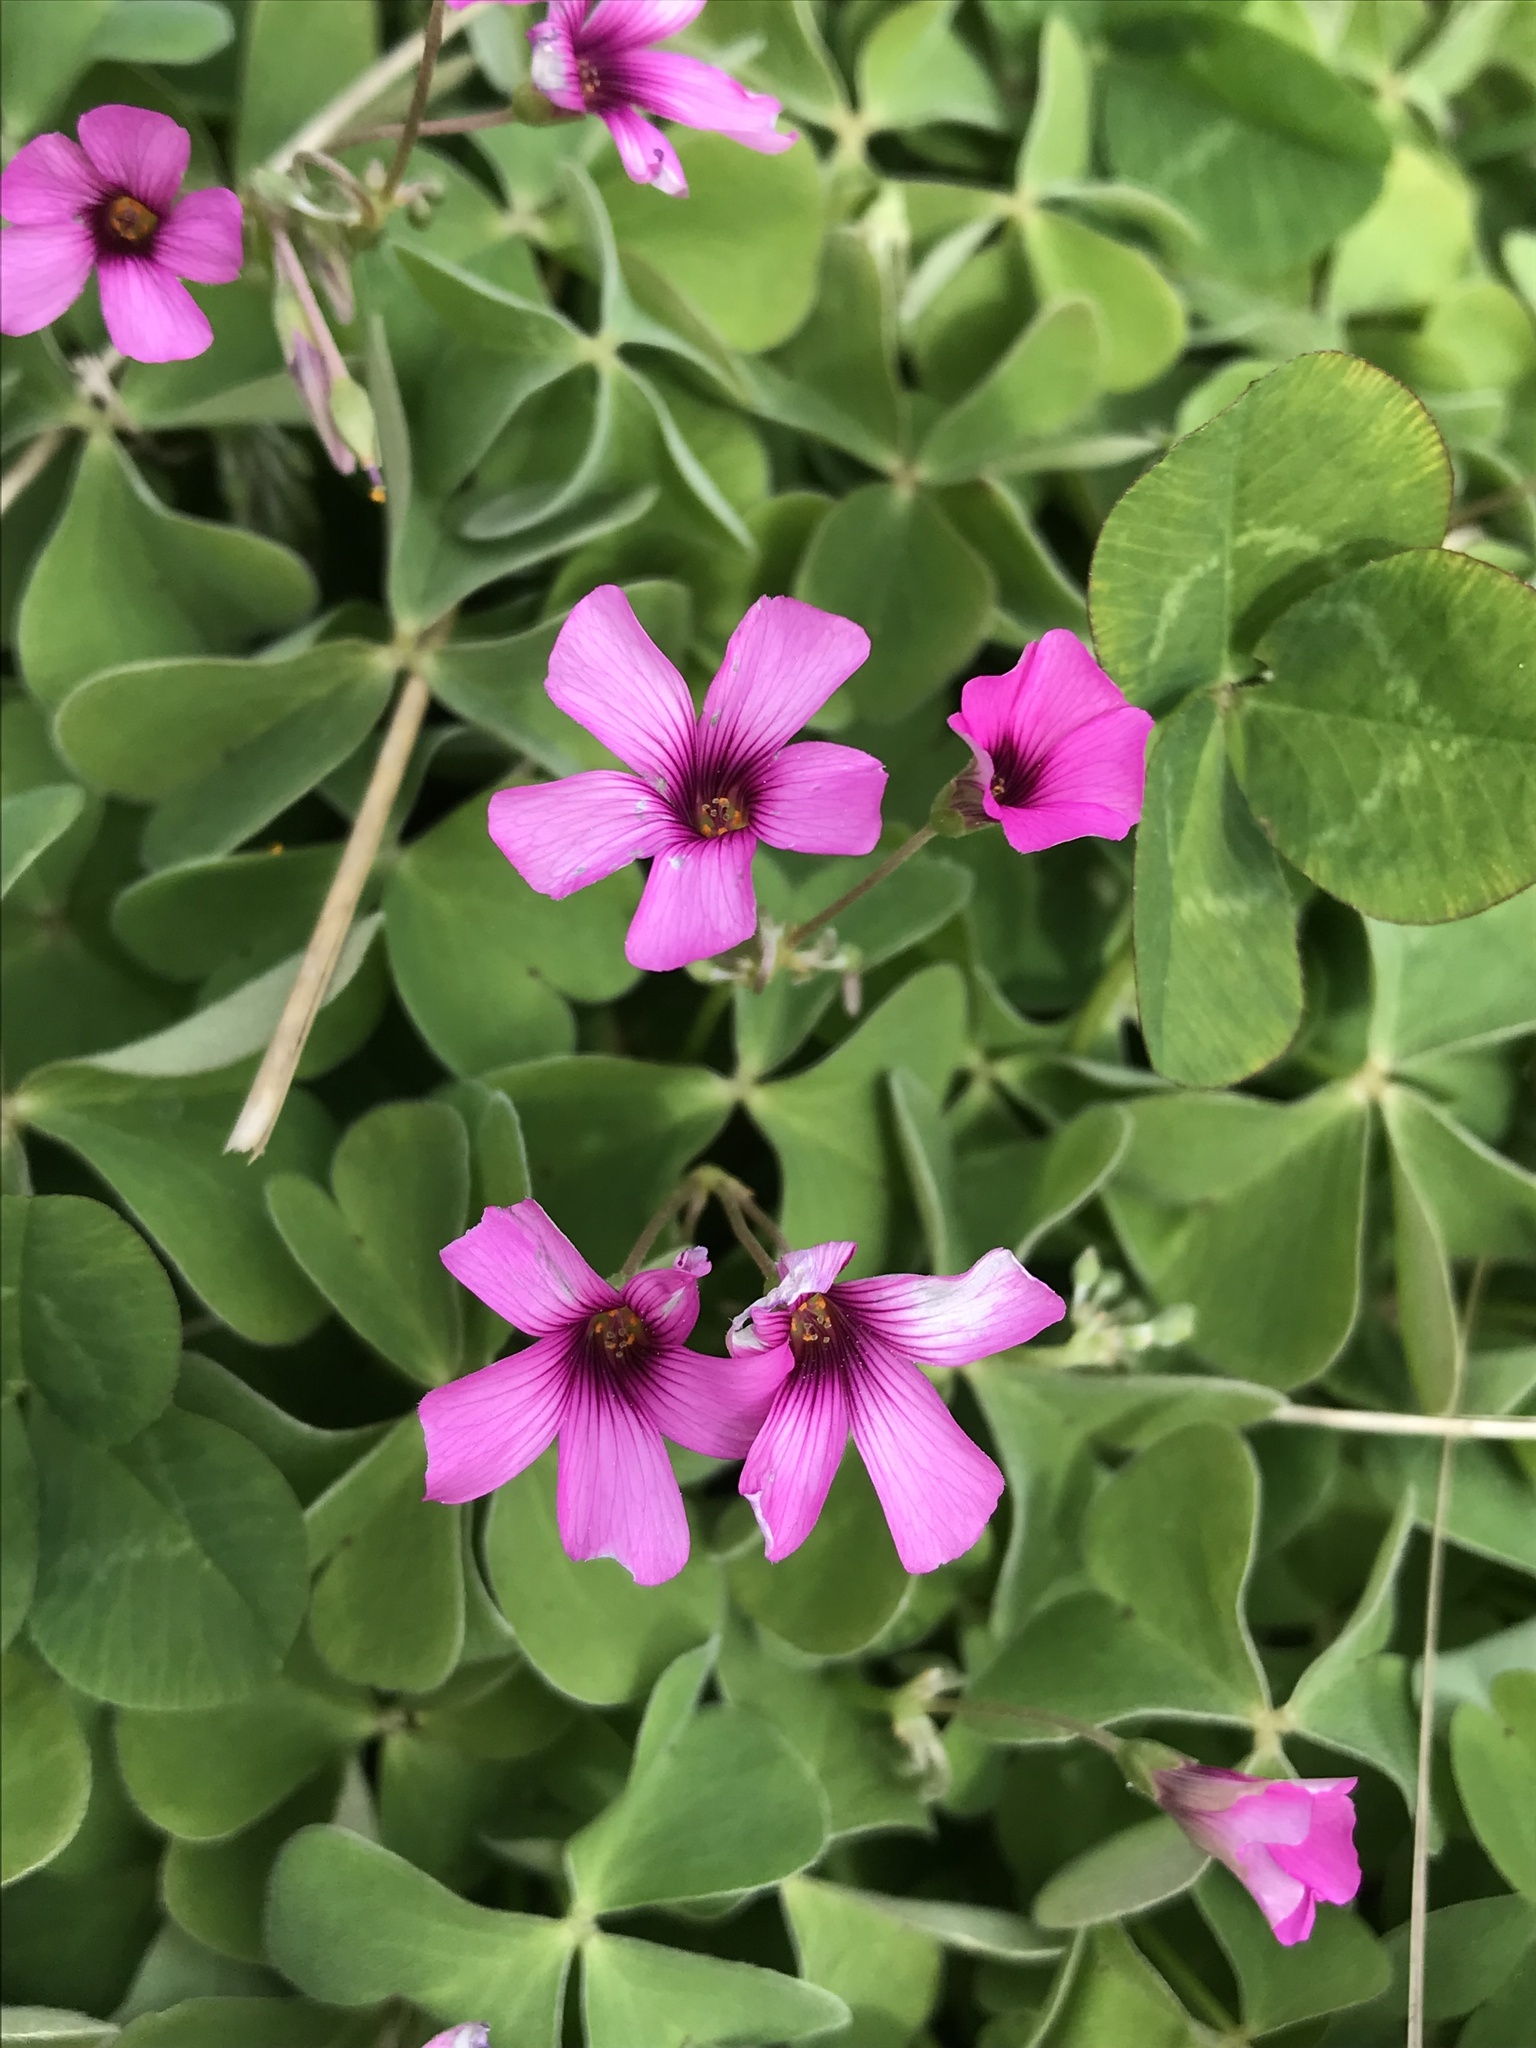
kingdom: Plantae
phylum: Tracheophyta
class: Magnoliopsida
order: Oxalidales
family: Oxalidaceae
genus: Oxalis
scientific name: Oxalis articulata
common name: Pink-sorrel
